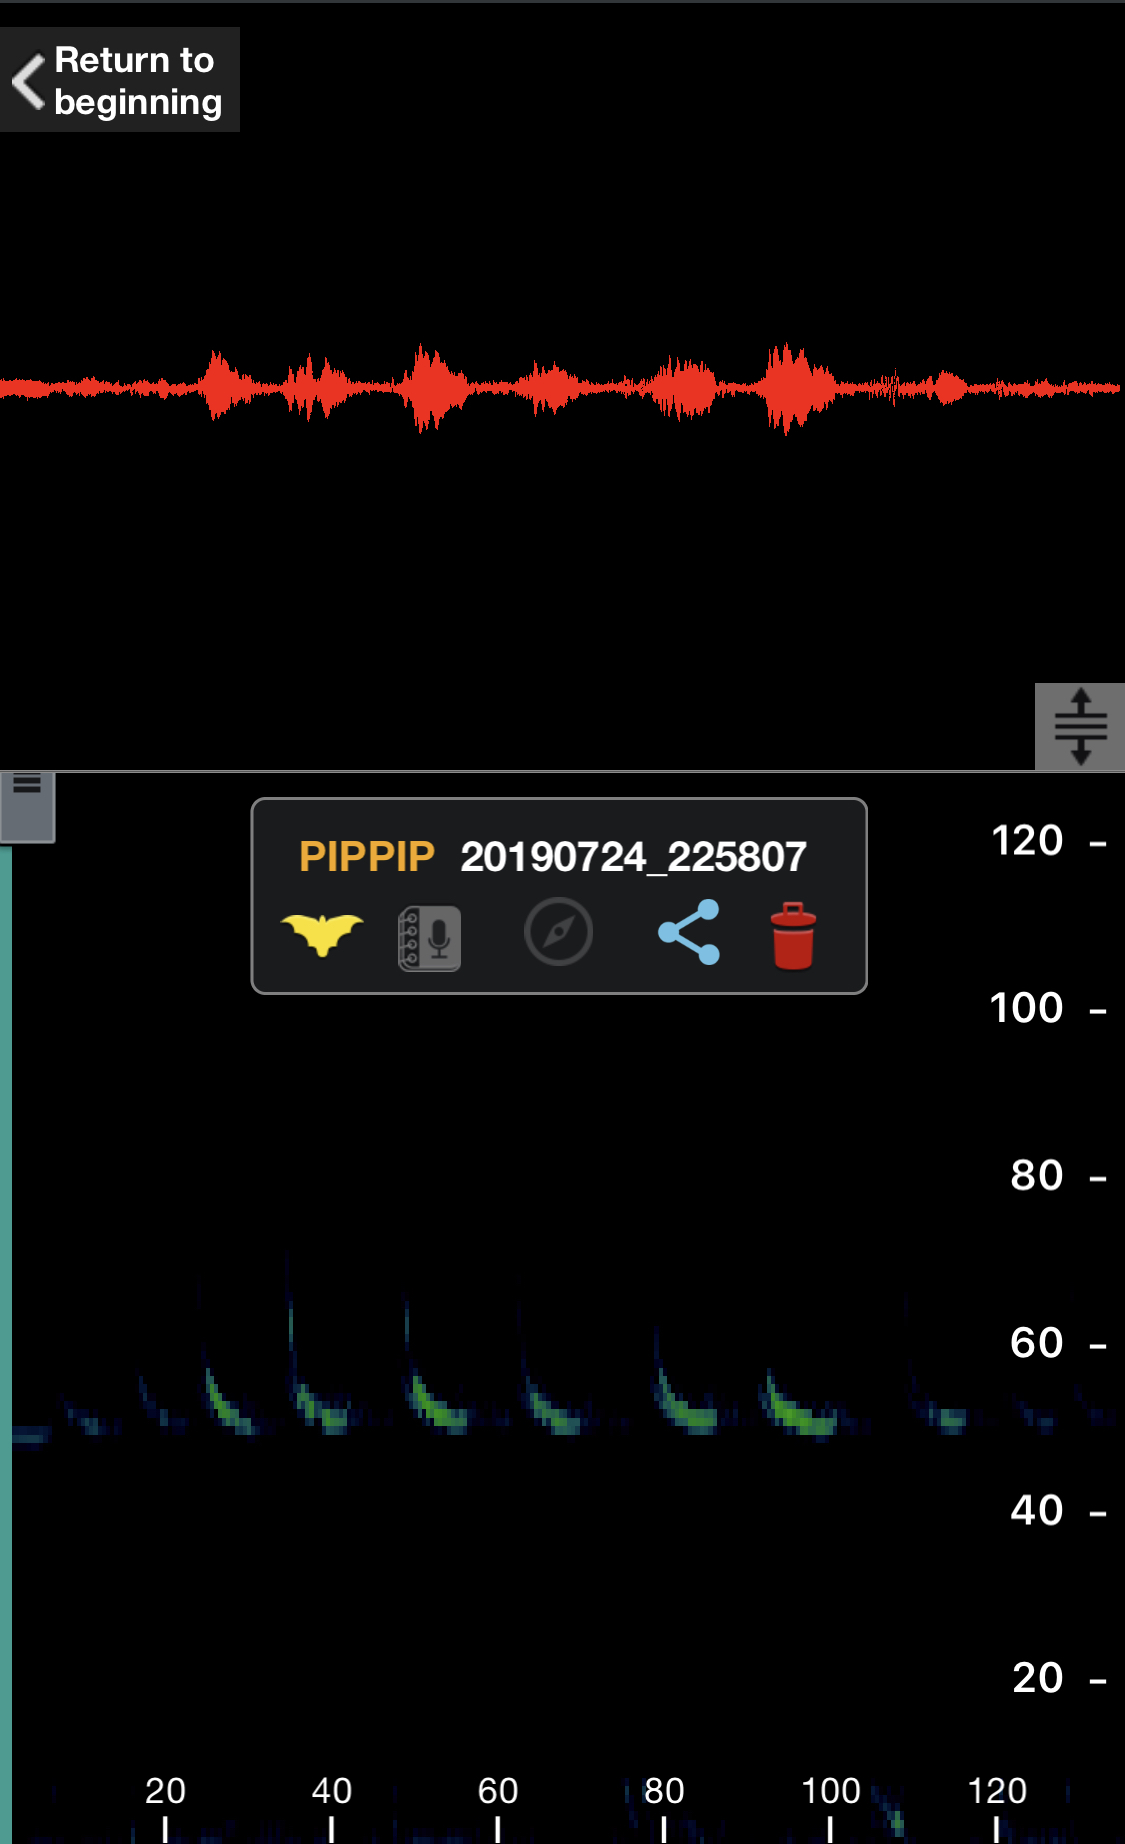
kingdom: Animalia
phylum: Chordata
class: Mammalia
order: Chiroptera
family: Vespertilionidae
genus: Pipistrellus
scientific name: Pipistrellus pipistrellus
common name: Common pipistrelle
